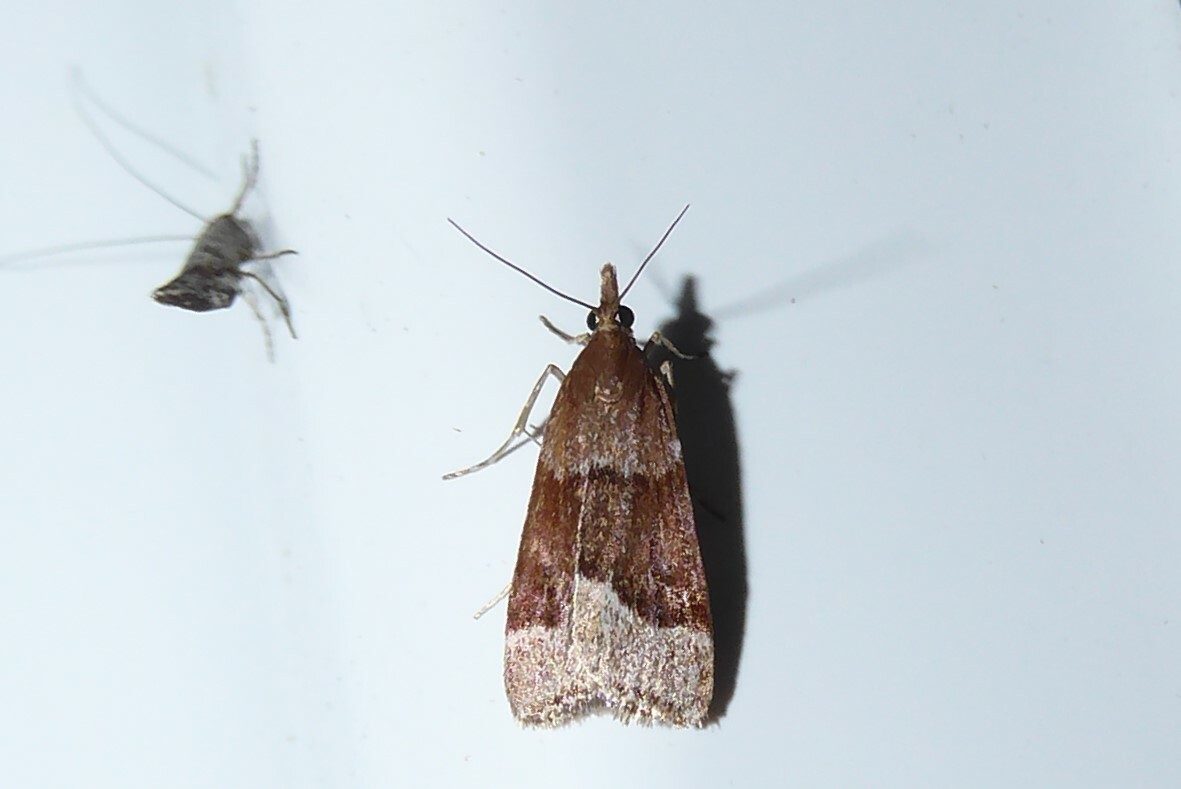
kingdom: Animalia
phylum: Arthropoda
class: Insecta
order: Lepidoptera
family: Crambidae
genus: Eudonia
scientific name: Eudonia feredayi
